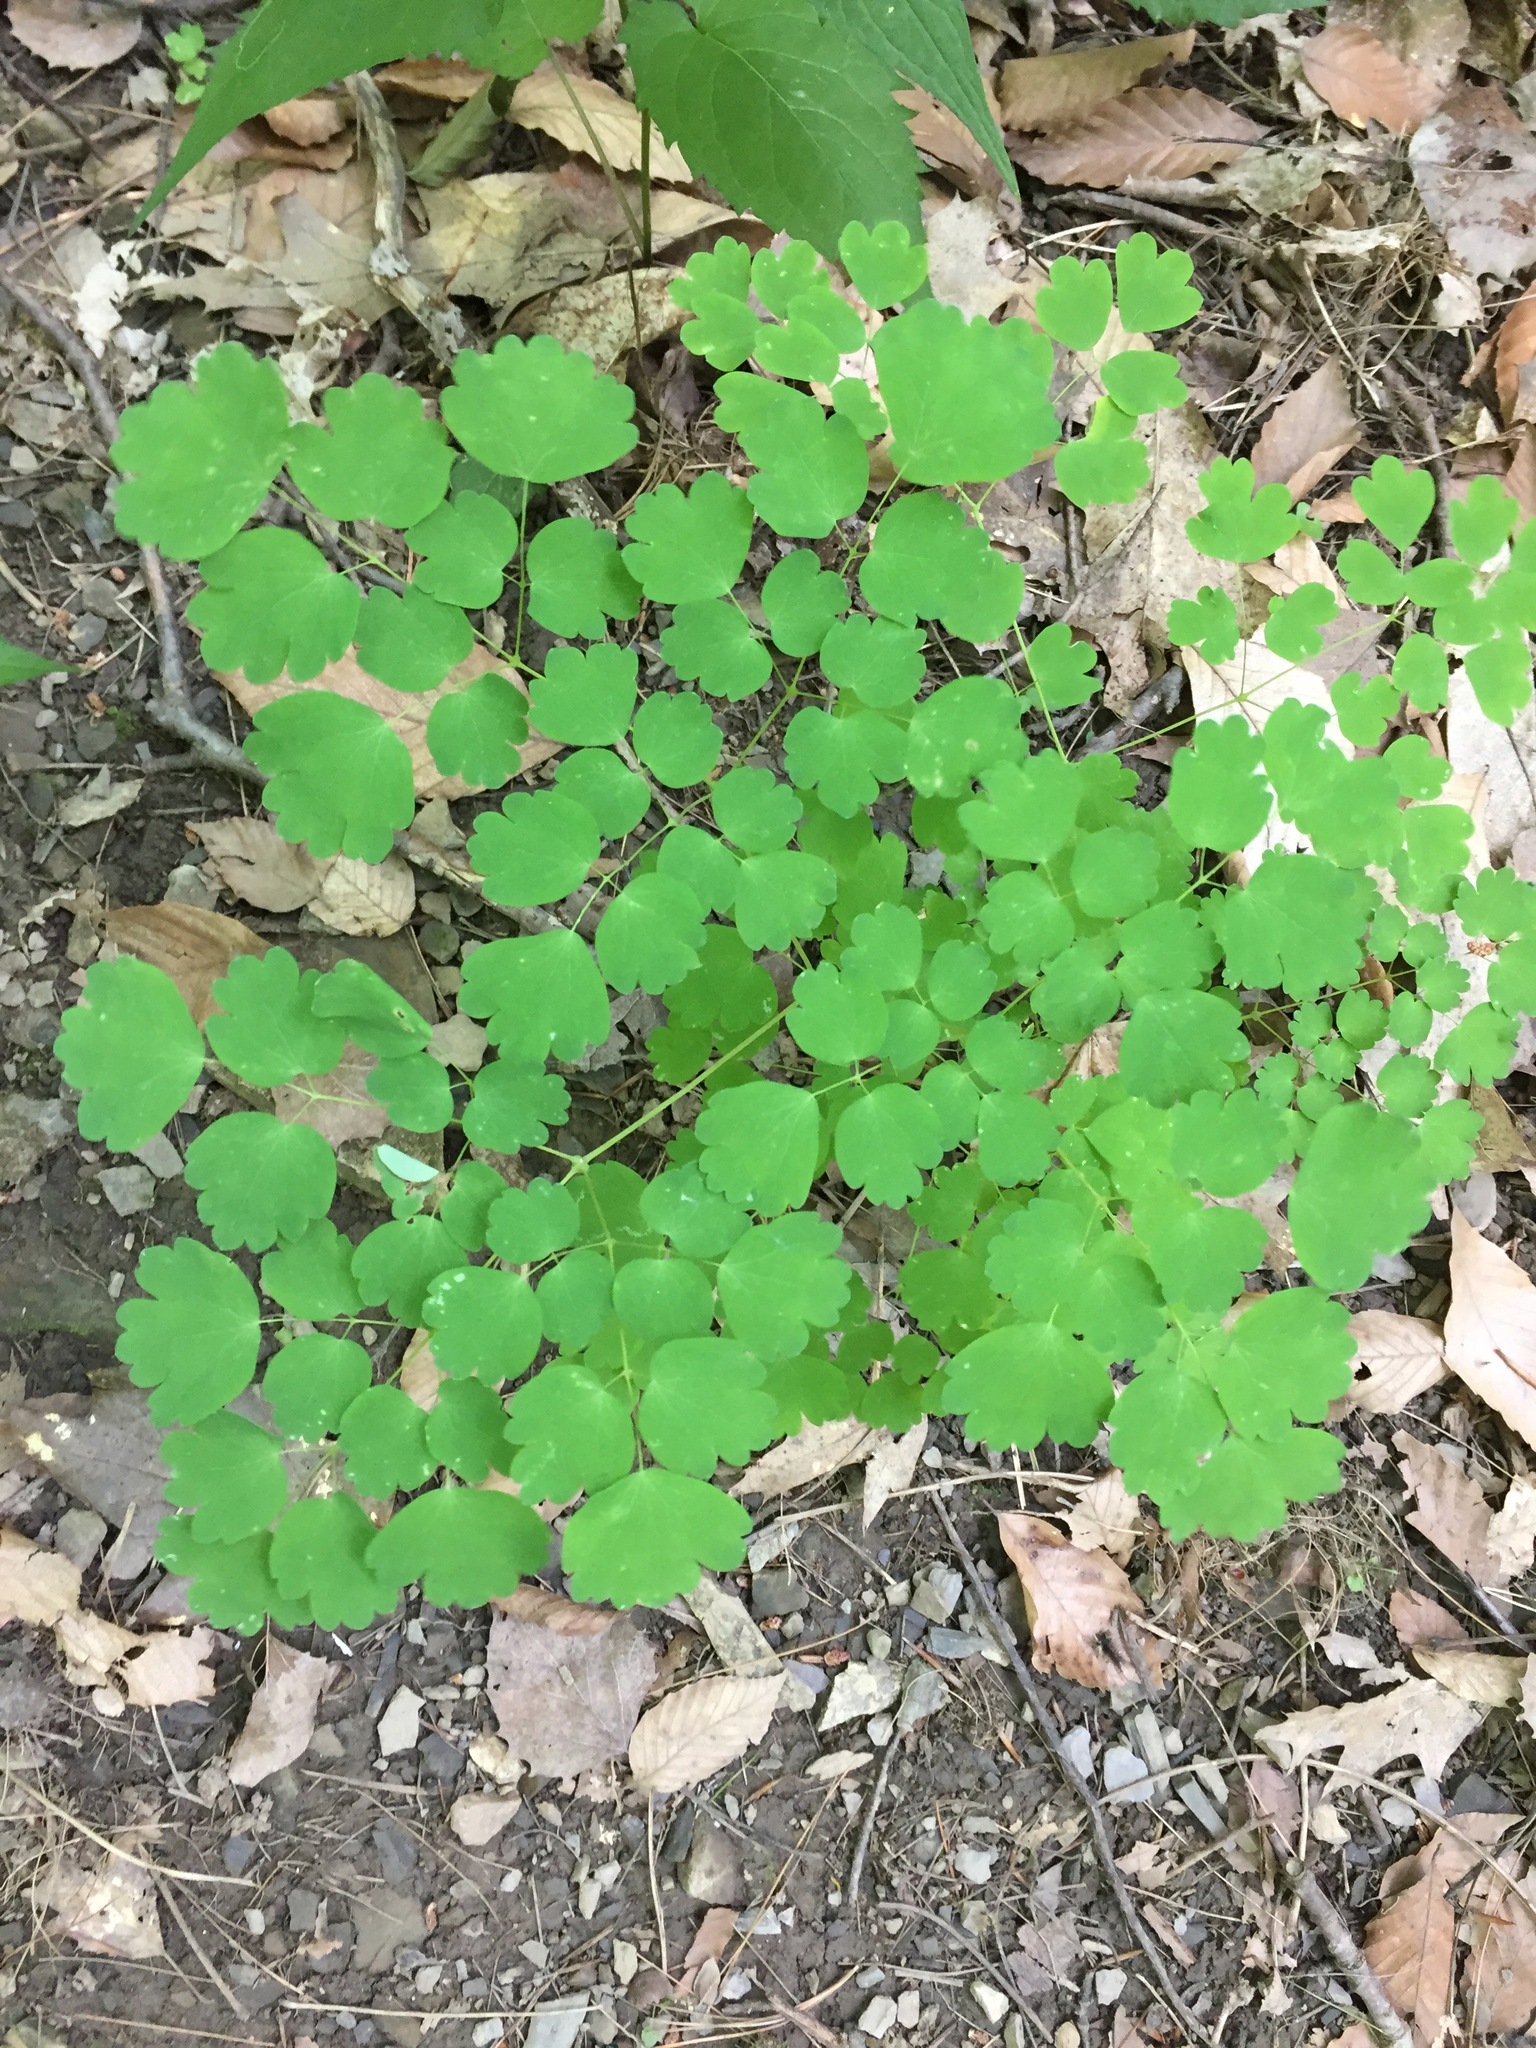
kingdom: Plantae
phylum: Tracheophyta
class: Magnoliopsida
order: Ranunculales
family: Ranunculaceae
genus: Thalictrum
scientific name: Thalictrum dioicum
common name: Early meadow-rue
